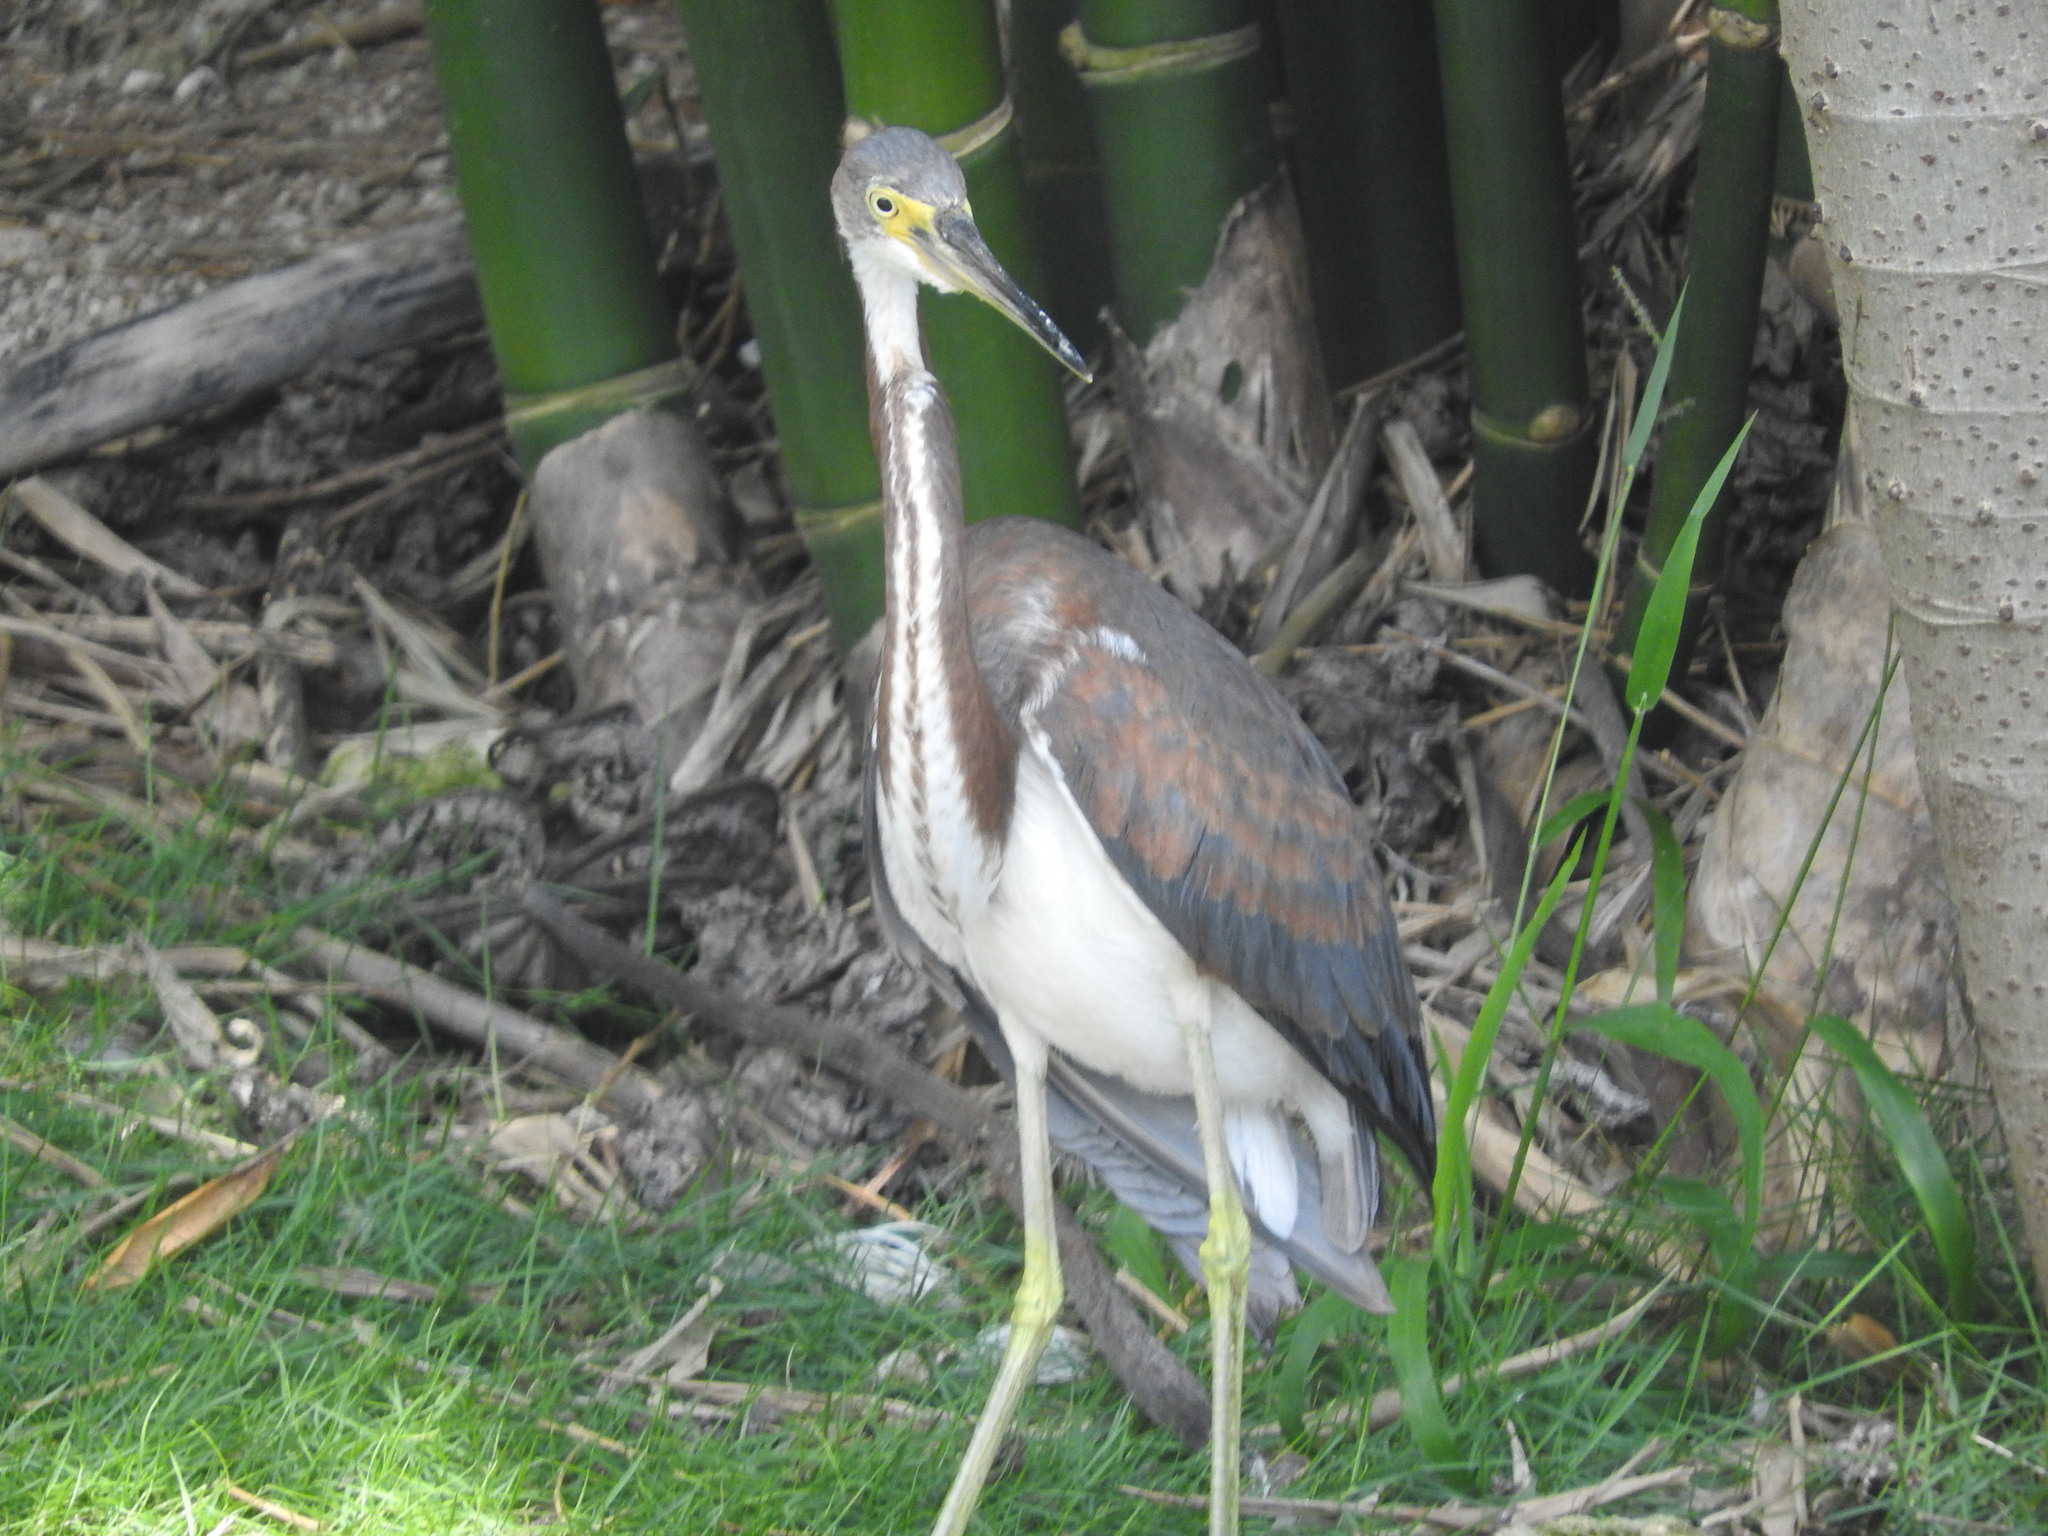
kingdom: Animalia
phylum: Chordata
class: Aves
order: Pelecaniformes
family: Ardeidae
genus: Egretta
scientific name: Egretta tricolor
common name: Tricolored heron
